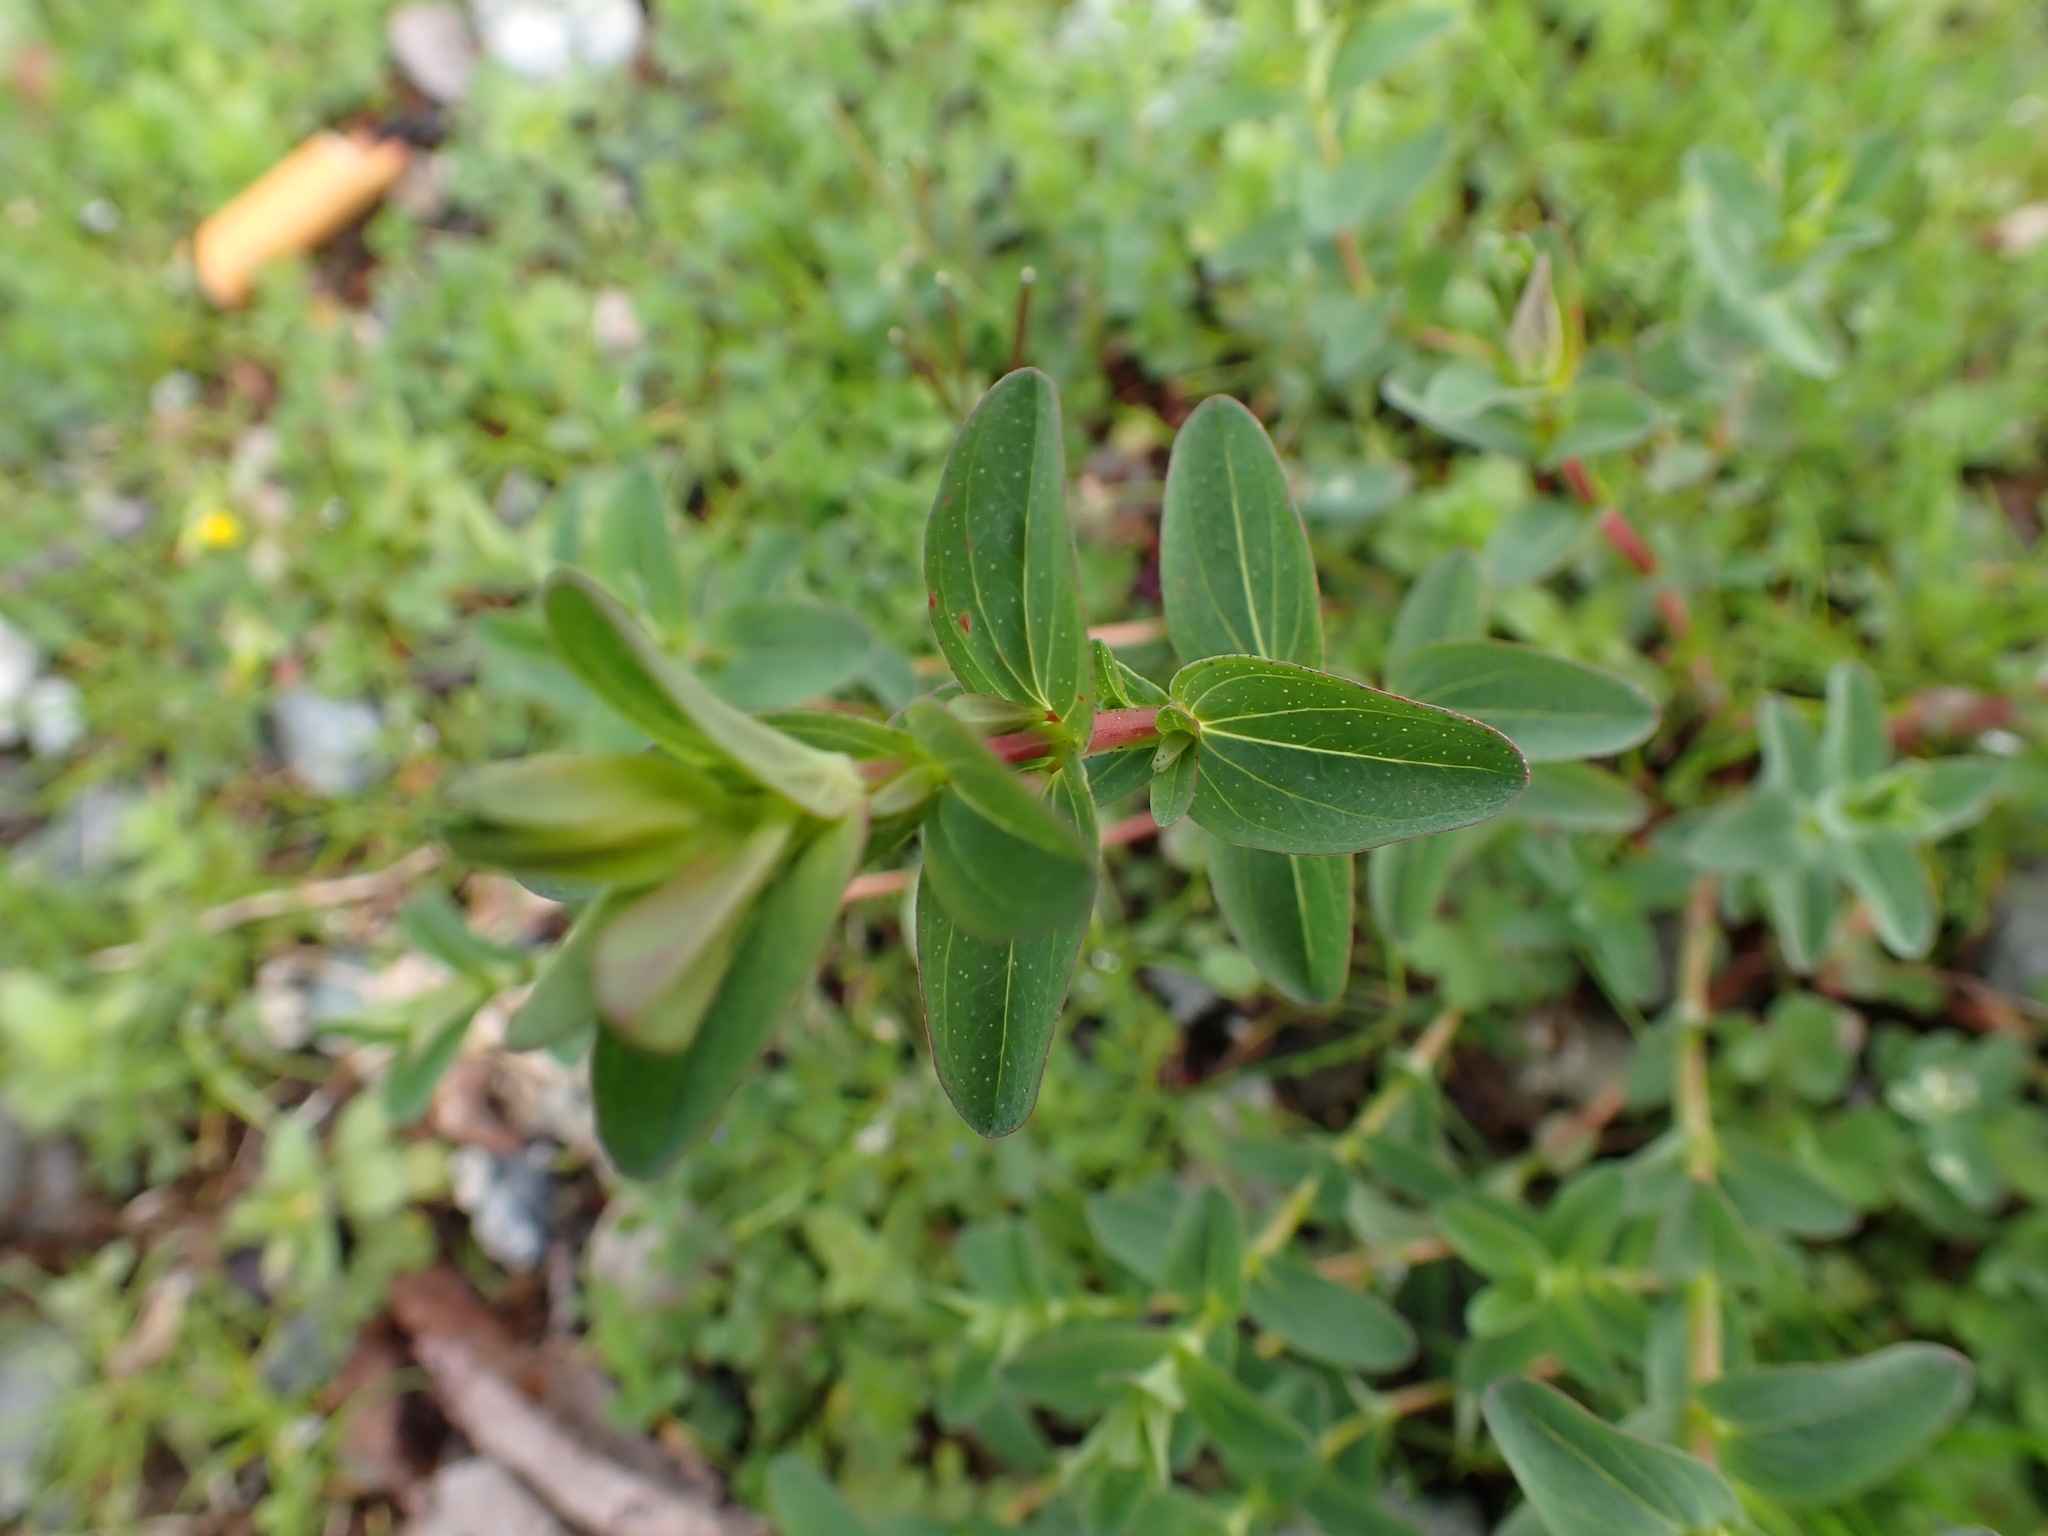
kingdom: Plantae
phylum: Tracheophyta
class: Magnoliopsida
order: Malpighiales
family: Hypericaceae
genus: Hypericum
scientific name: Hypericum perforatum
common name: Common st. johnswort
